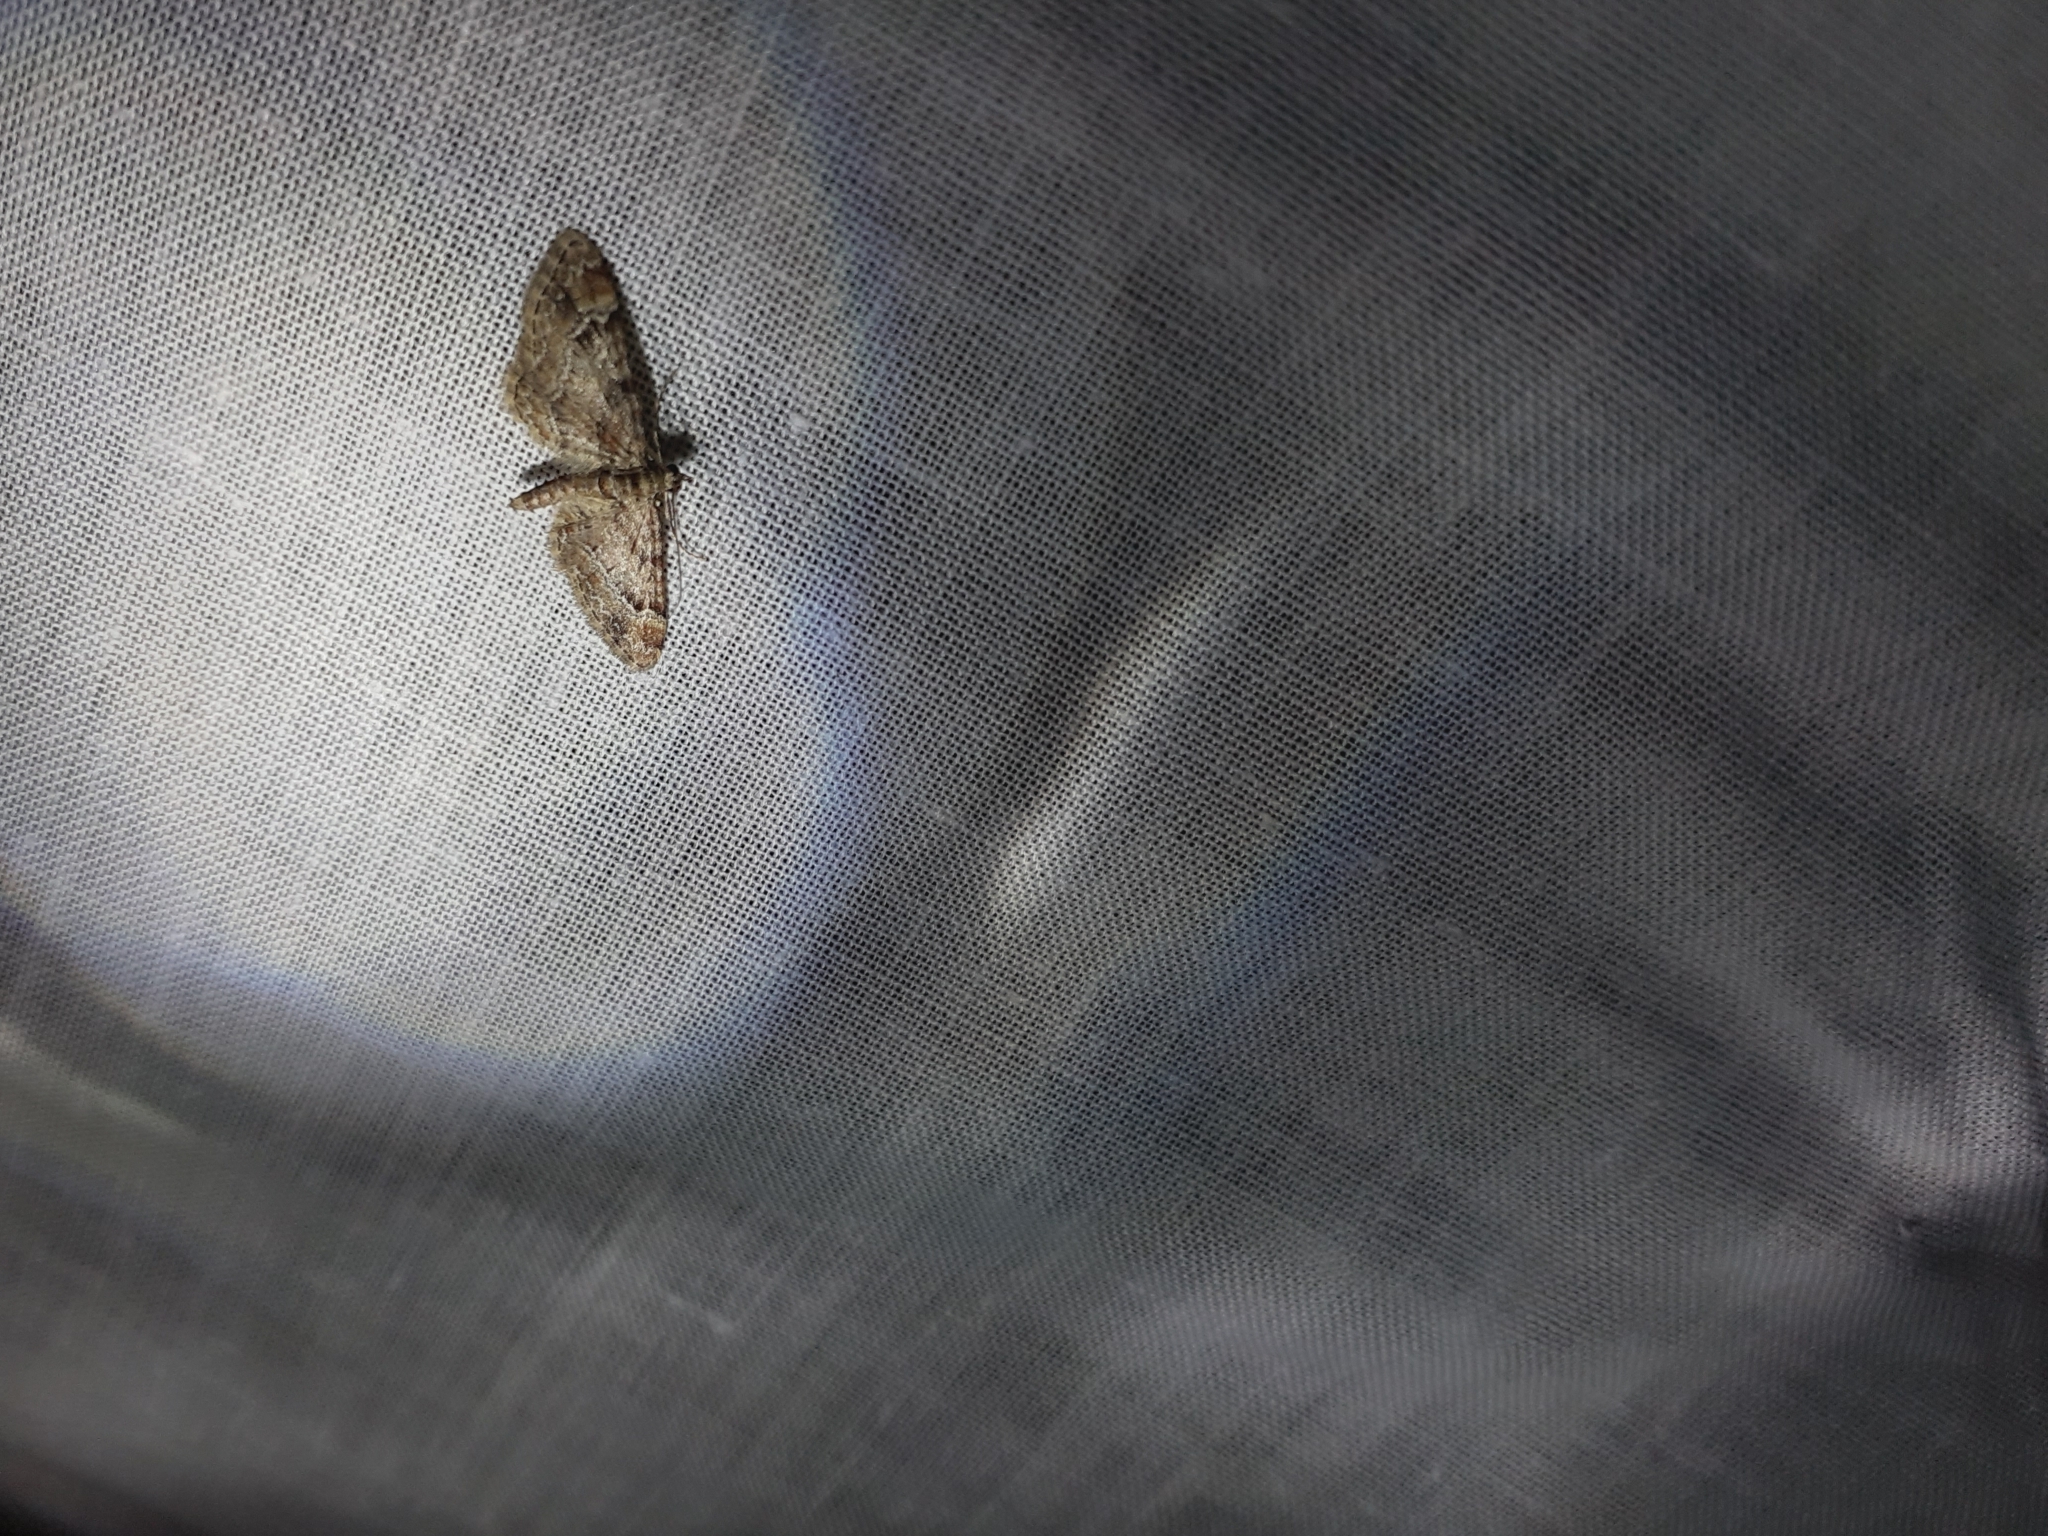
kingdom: Animalia
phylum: Arthropoda
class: Insecta
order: Lepidoptera
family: Geometridae
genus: Gymnoscelis
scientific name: Gymnoscelis rufifasciata
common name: Double-striped pug
